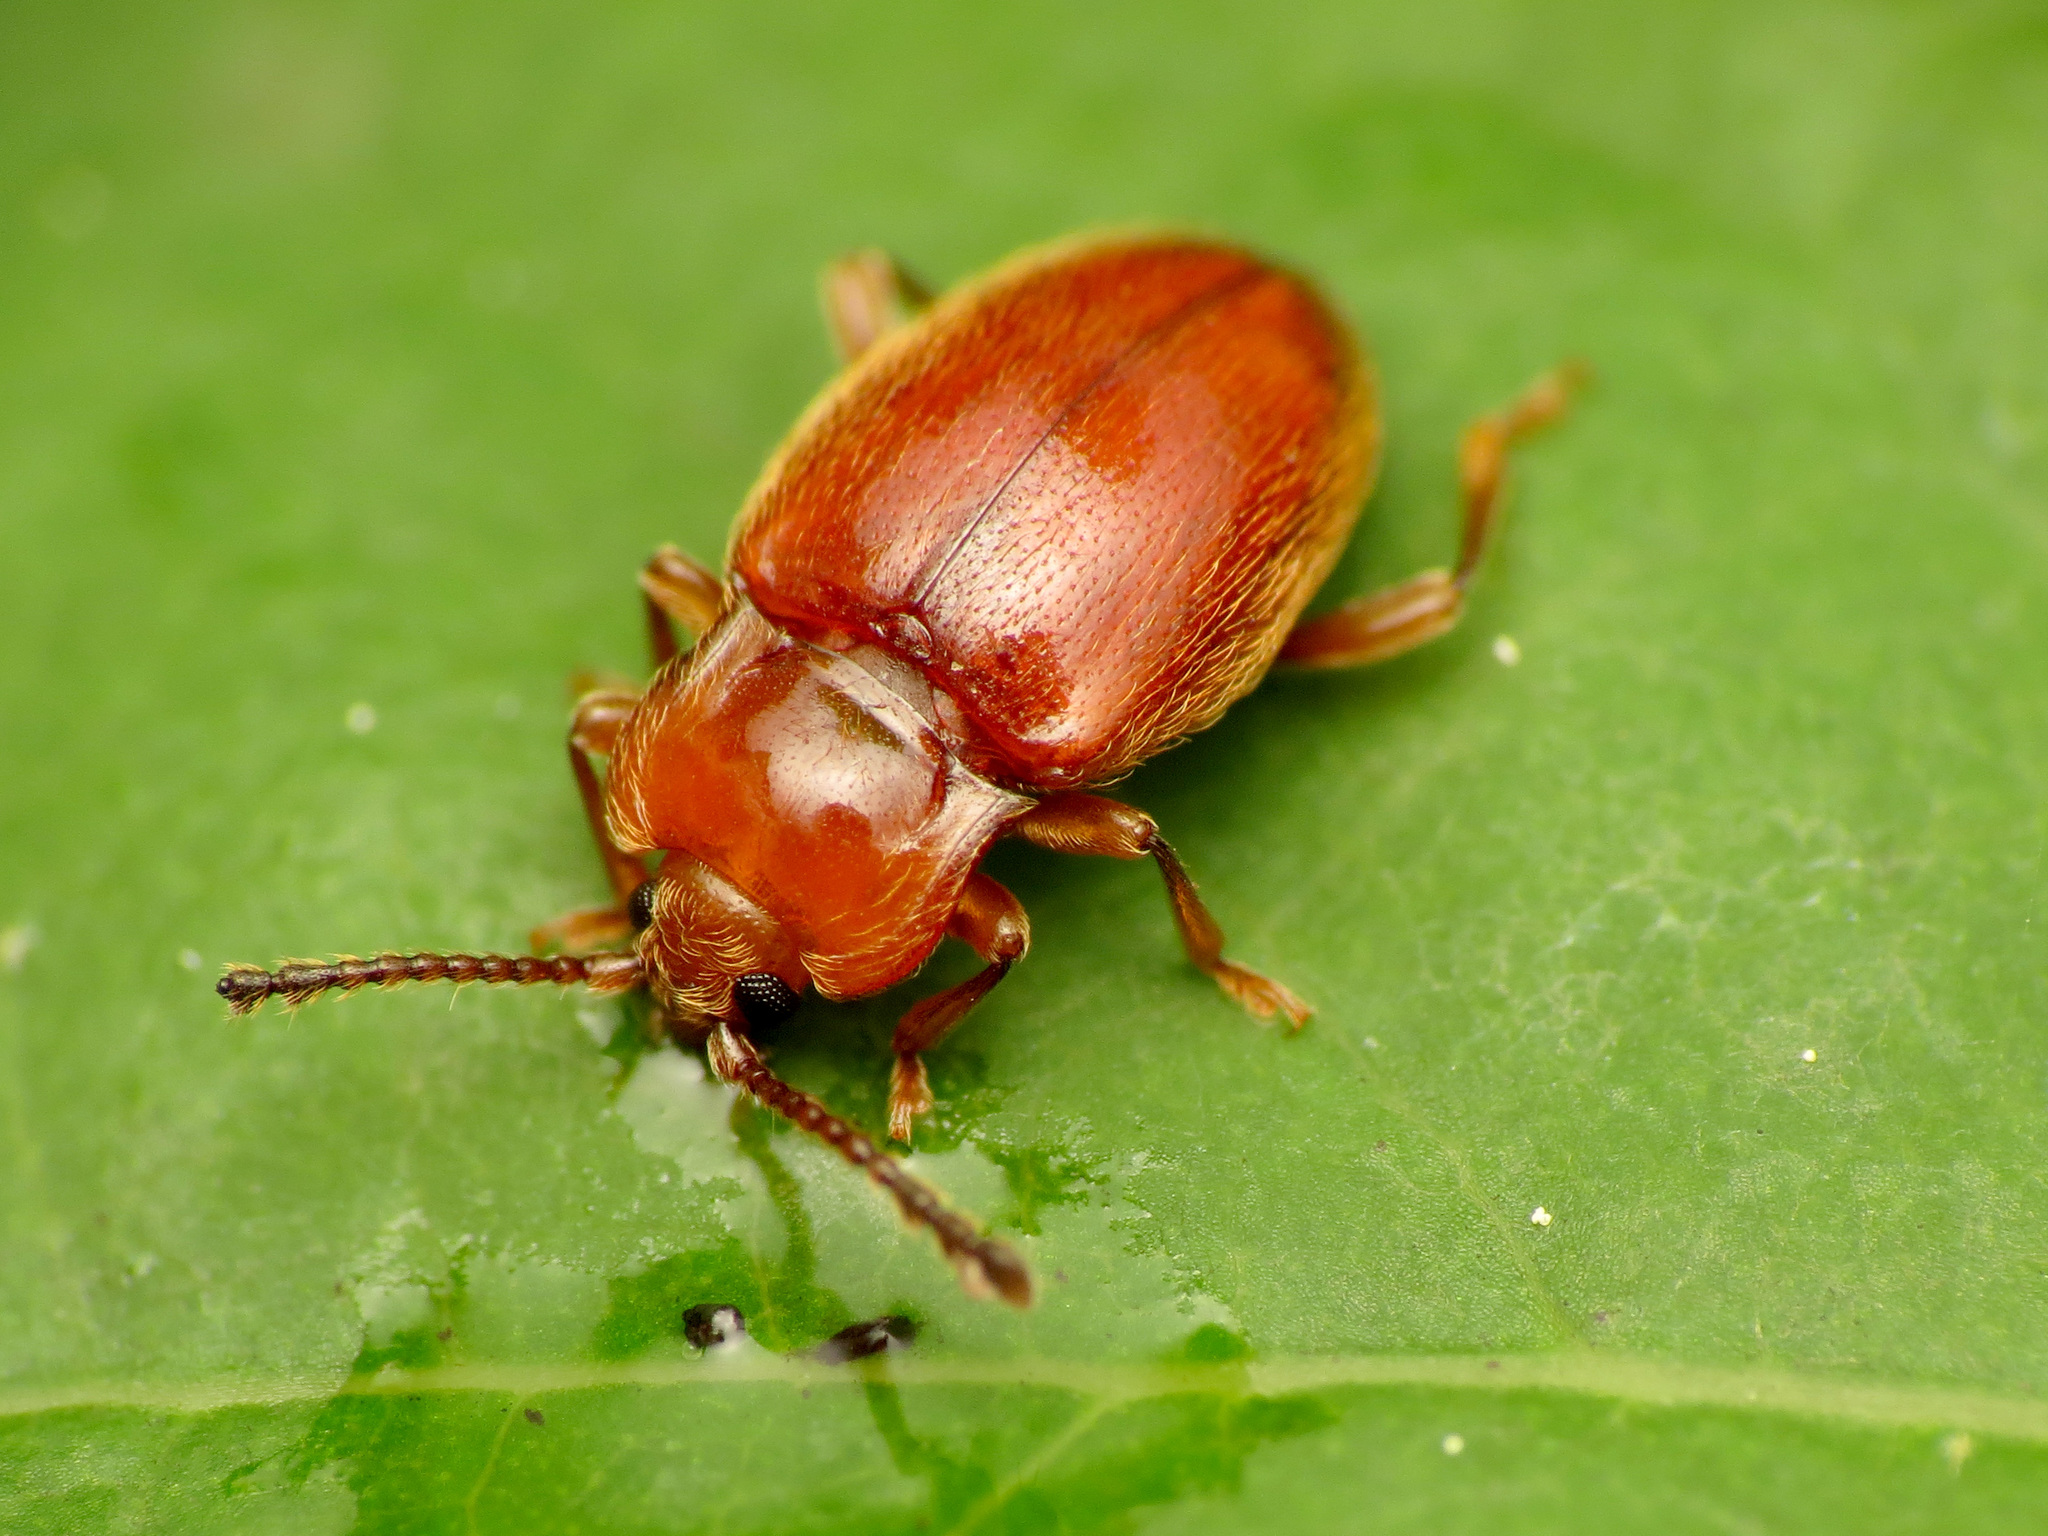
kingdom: Animalia
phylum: Arthropoda
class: Insecta
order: Coleoptera
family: Endomychidae
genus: Danae
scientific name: Danae testacea
